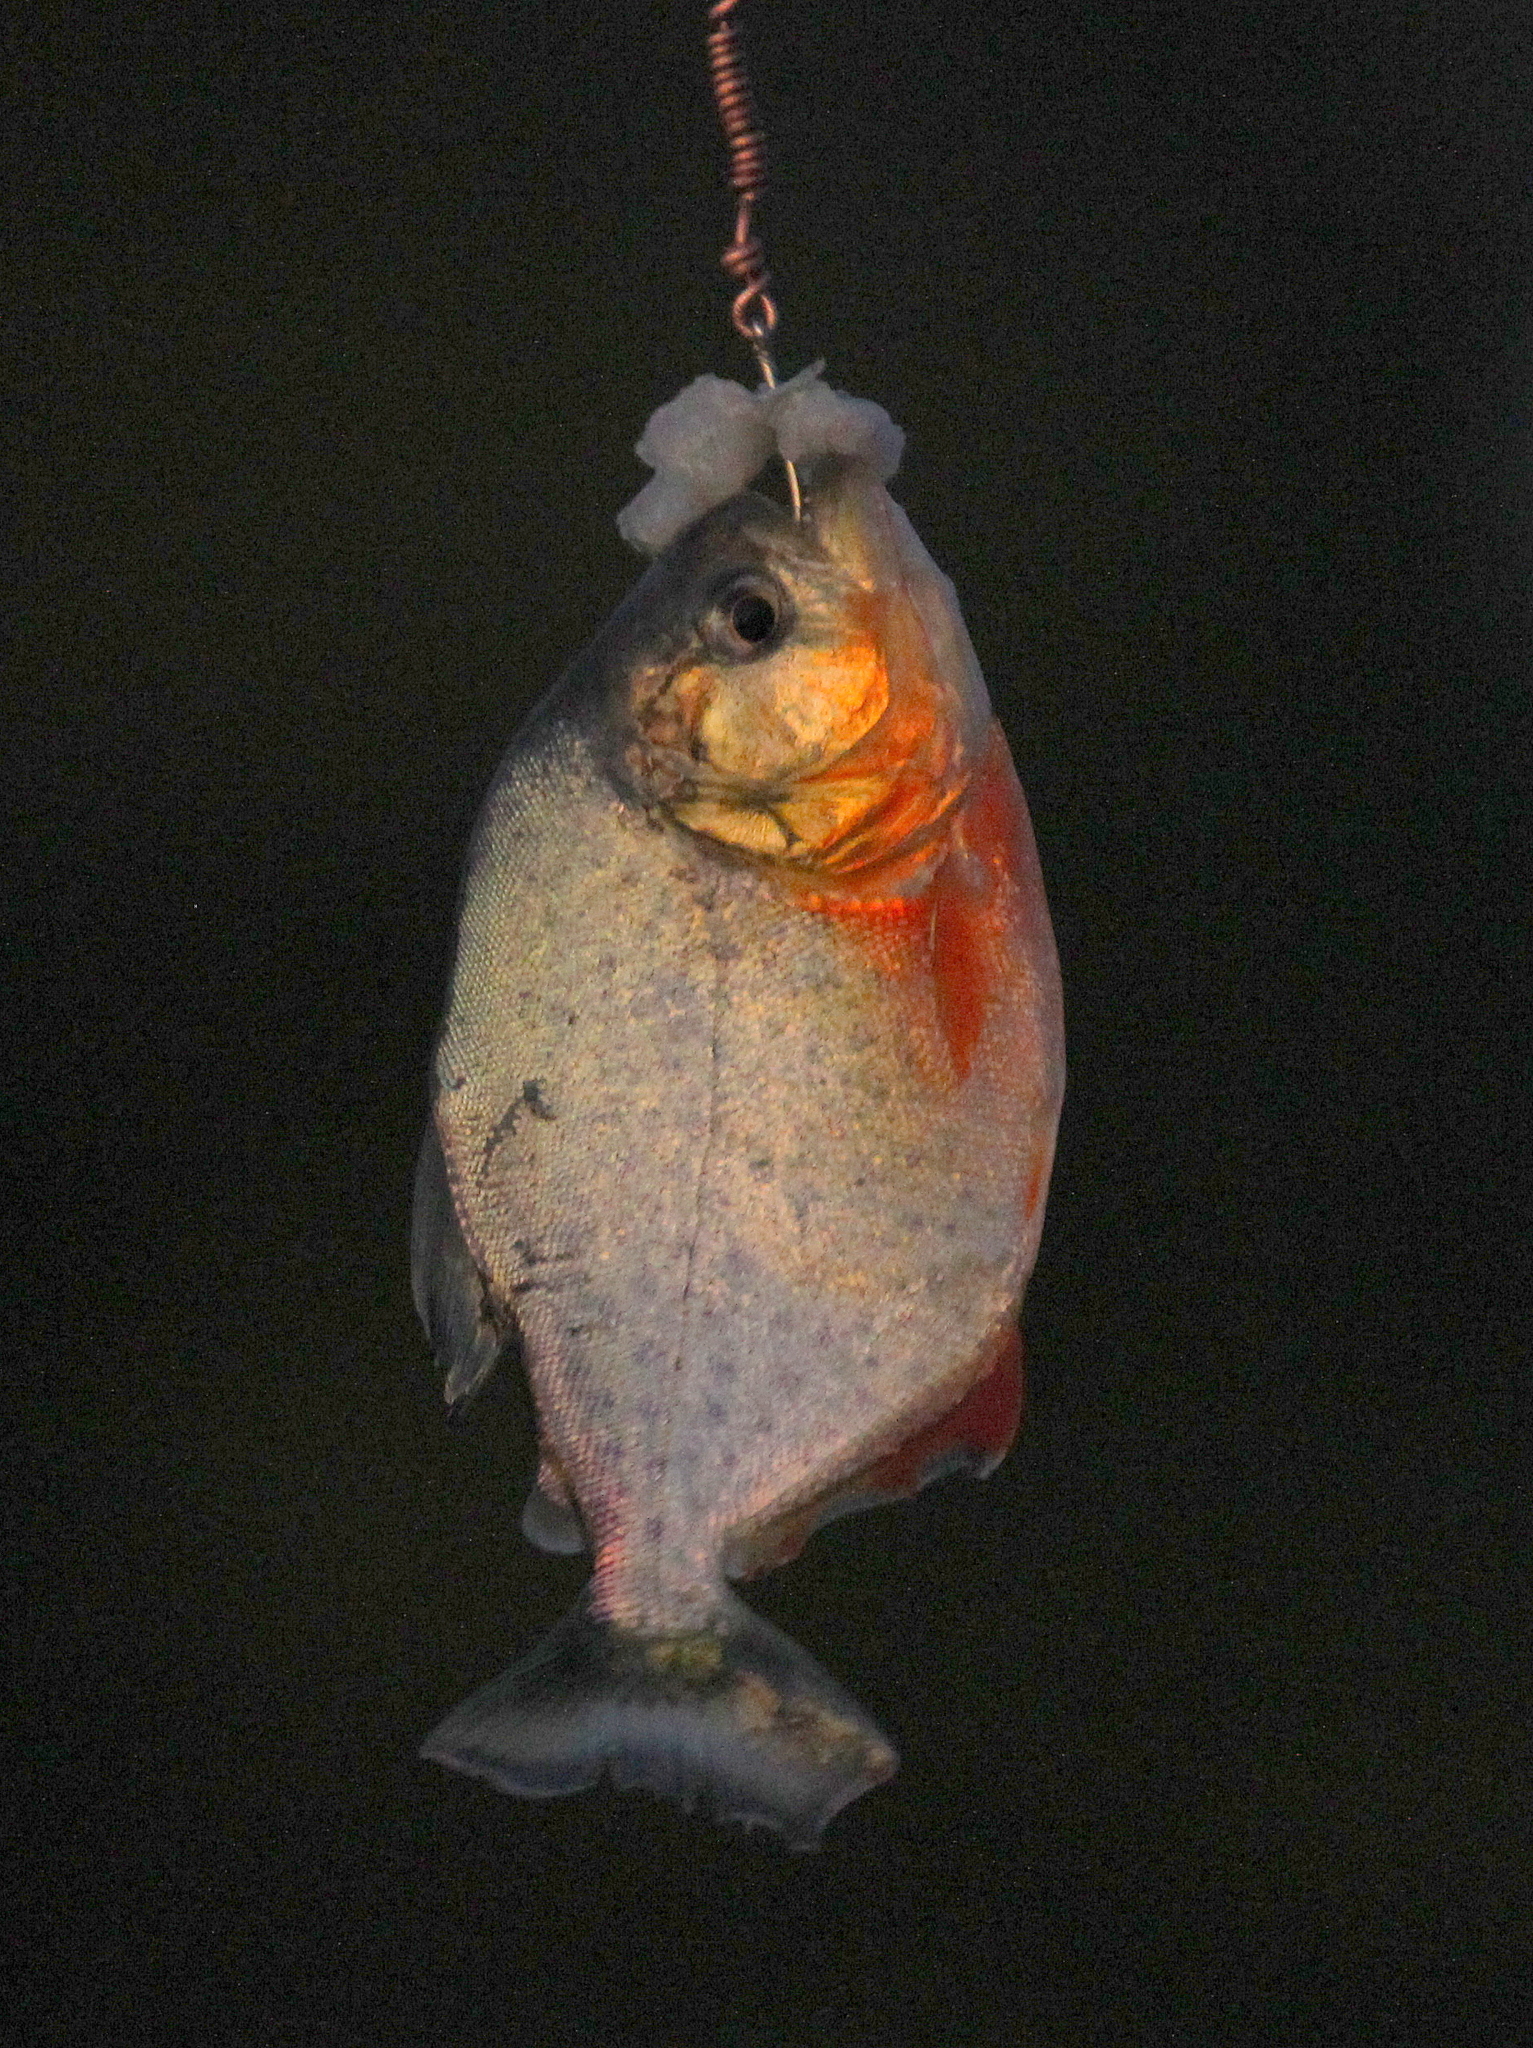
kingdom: Animalia
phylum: Chordata
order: Characiformes
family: Serrasalmidae
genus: Pygocentrus
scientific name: Pygocentrus nattereri
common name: Piranha
